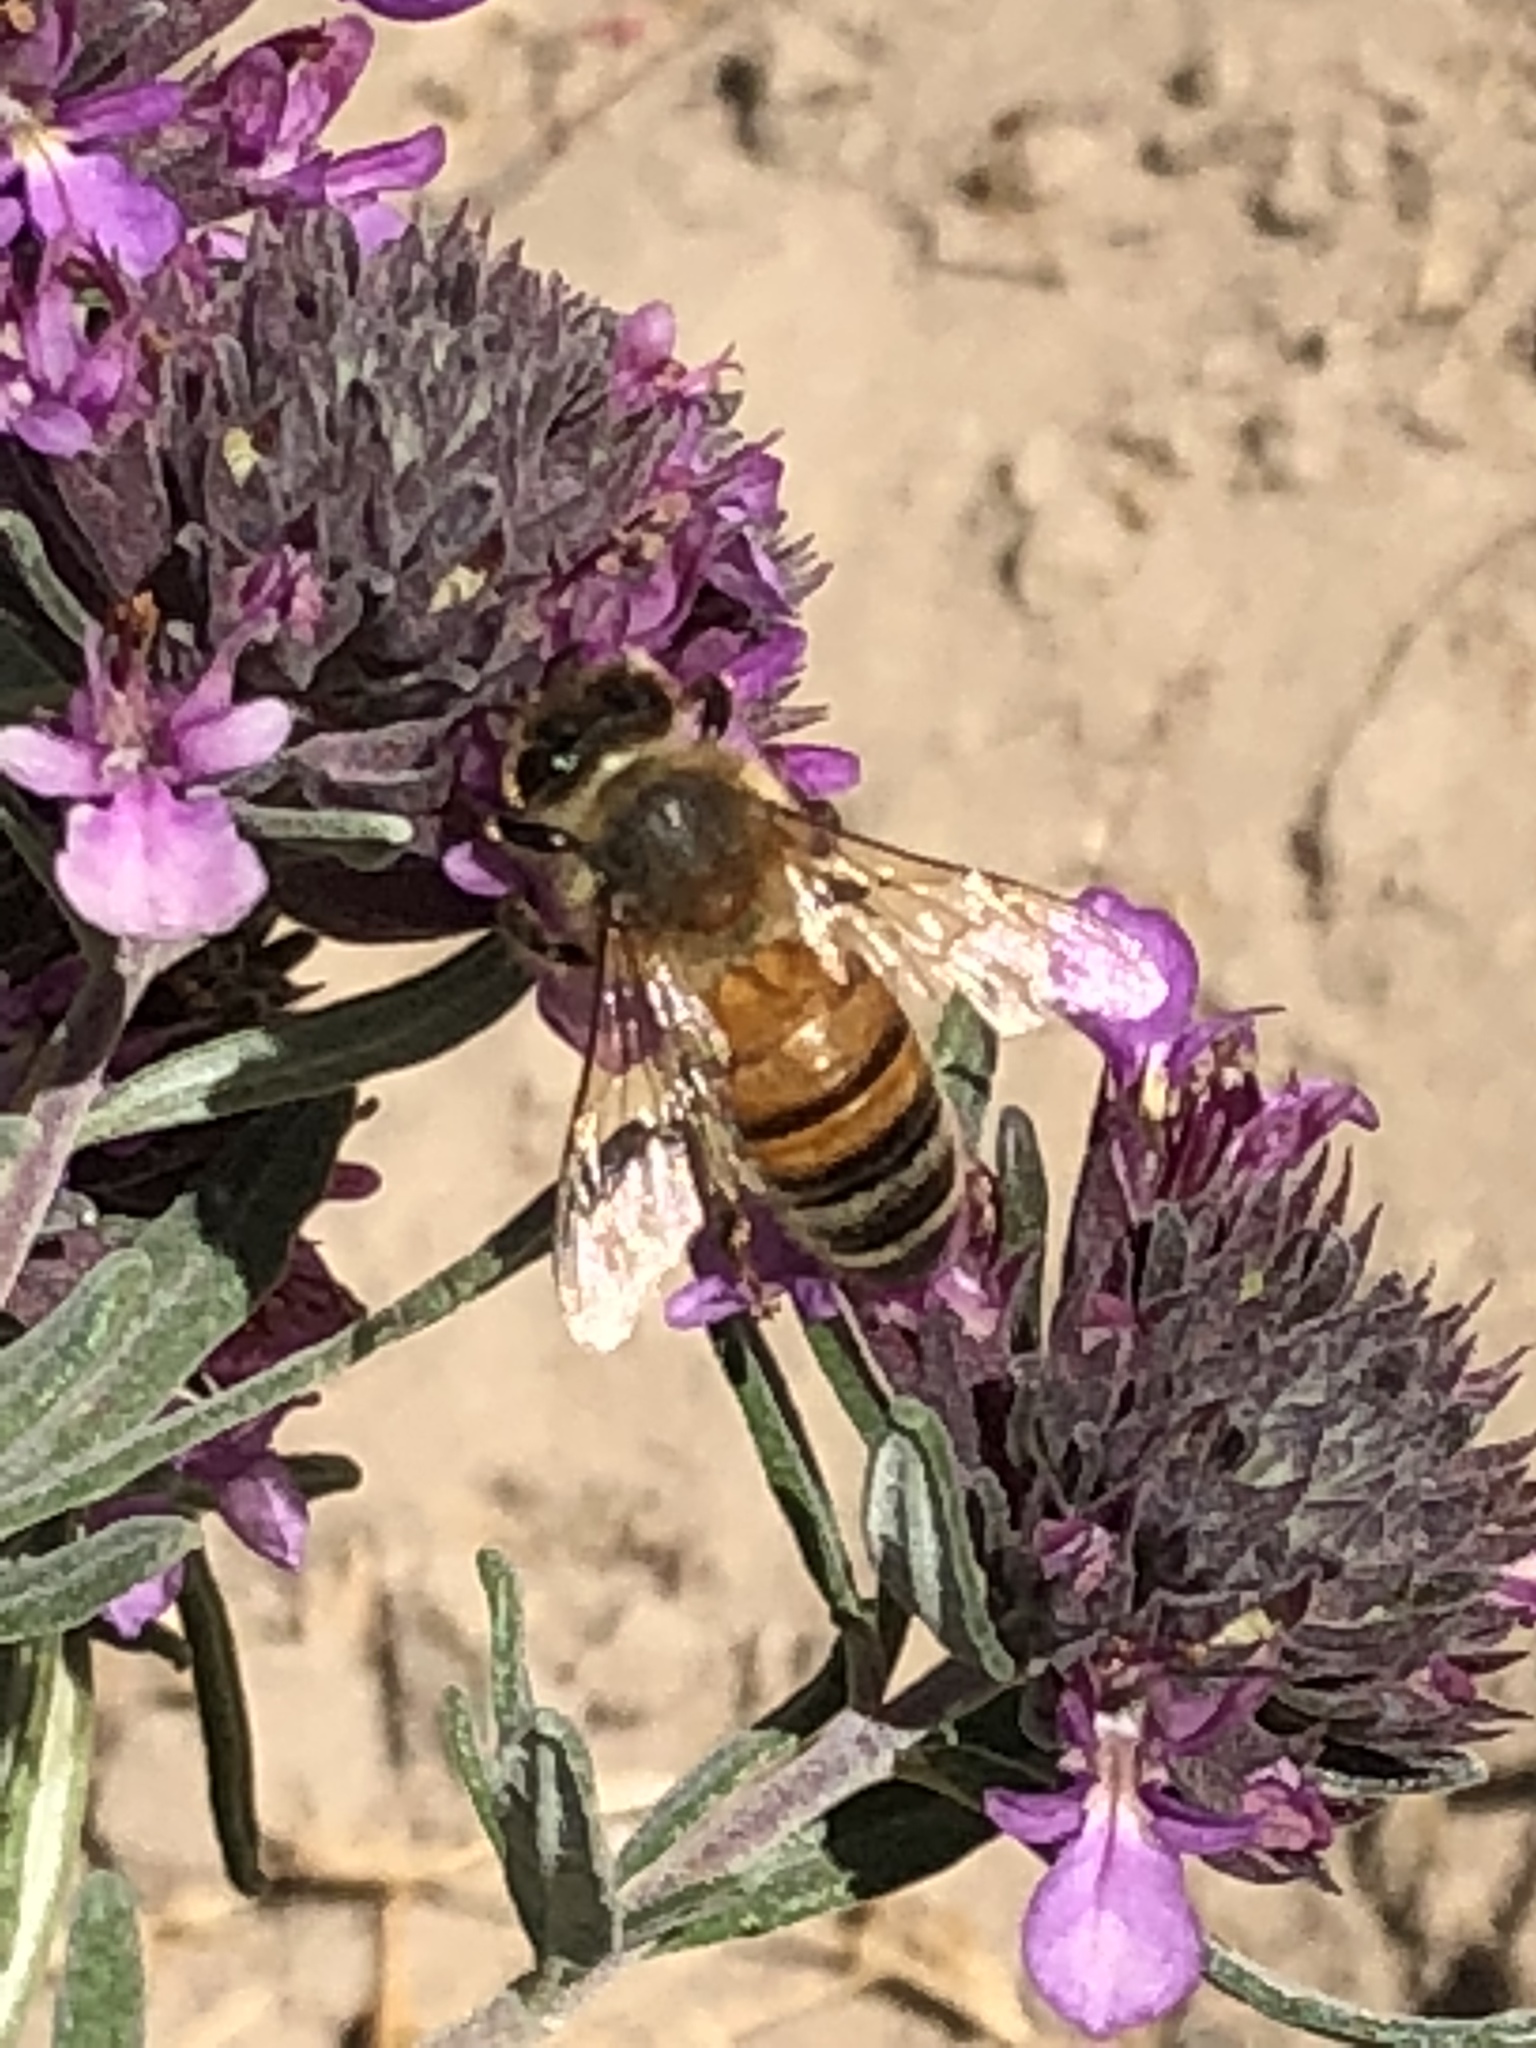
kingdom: Animalia
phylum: Arthropoda
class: Insecta
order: Hymenoptera
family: Apidae
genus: Apis
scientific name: Apis mellifera
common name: Honey bee
